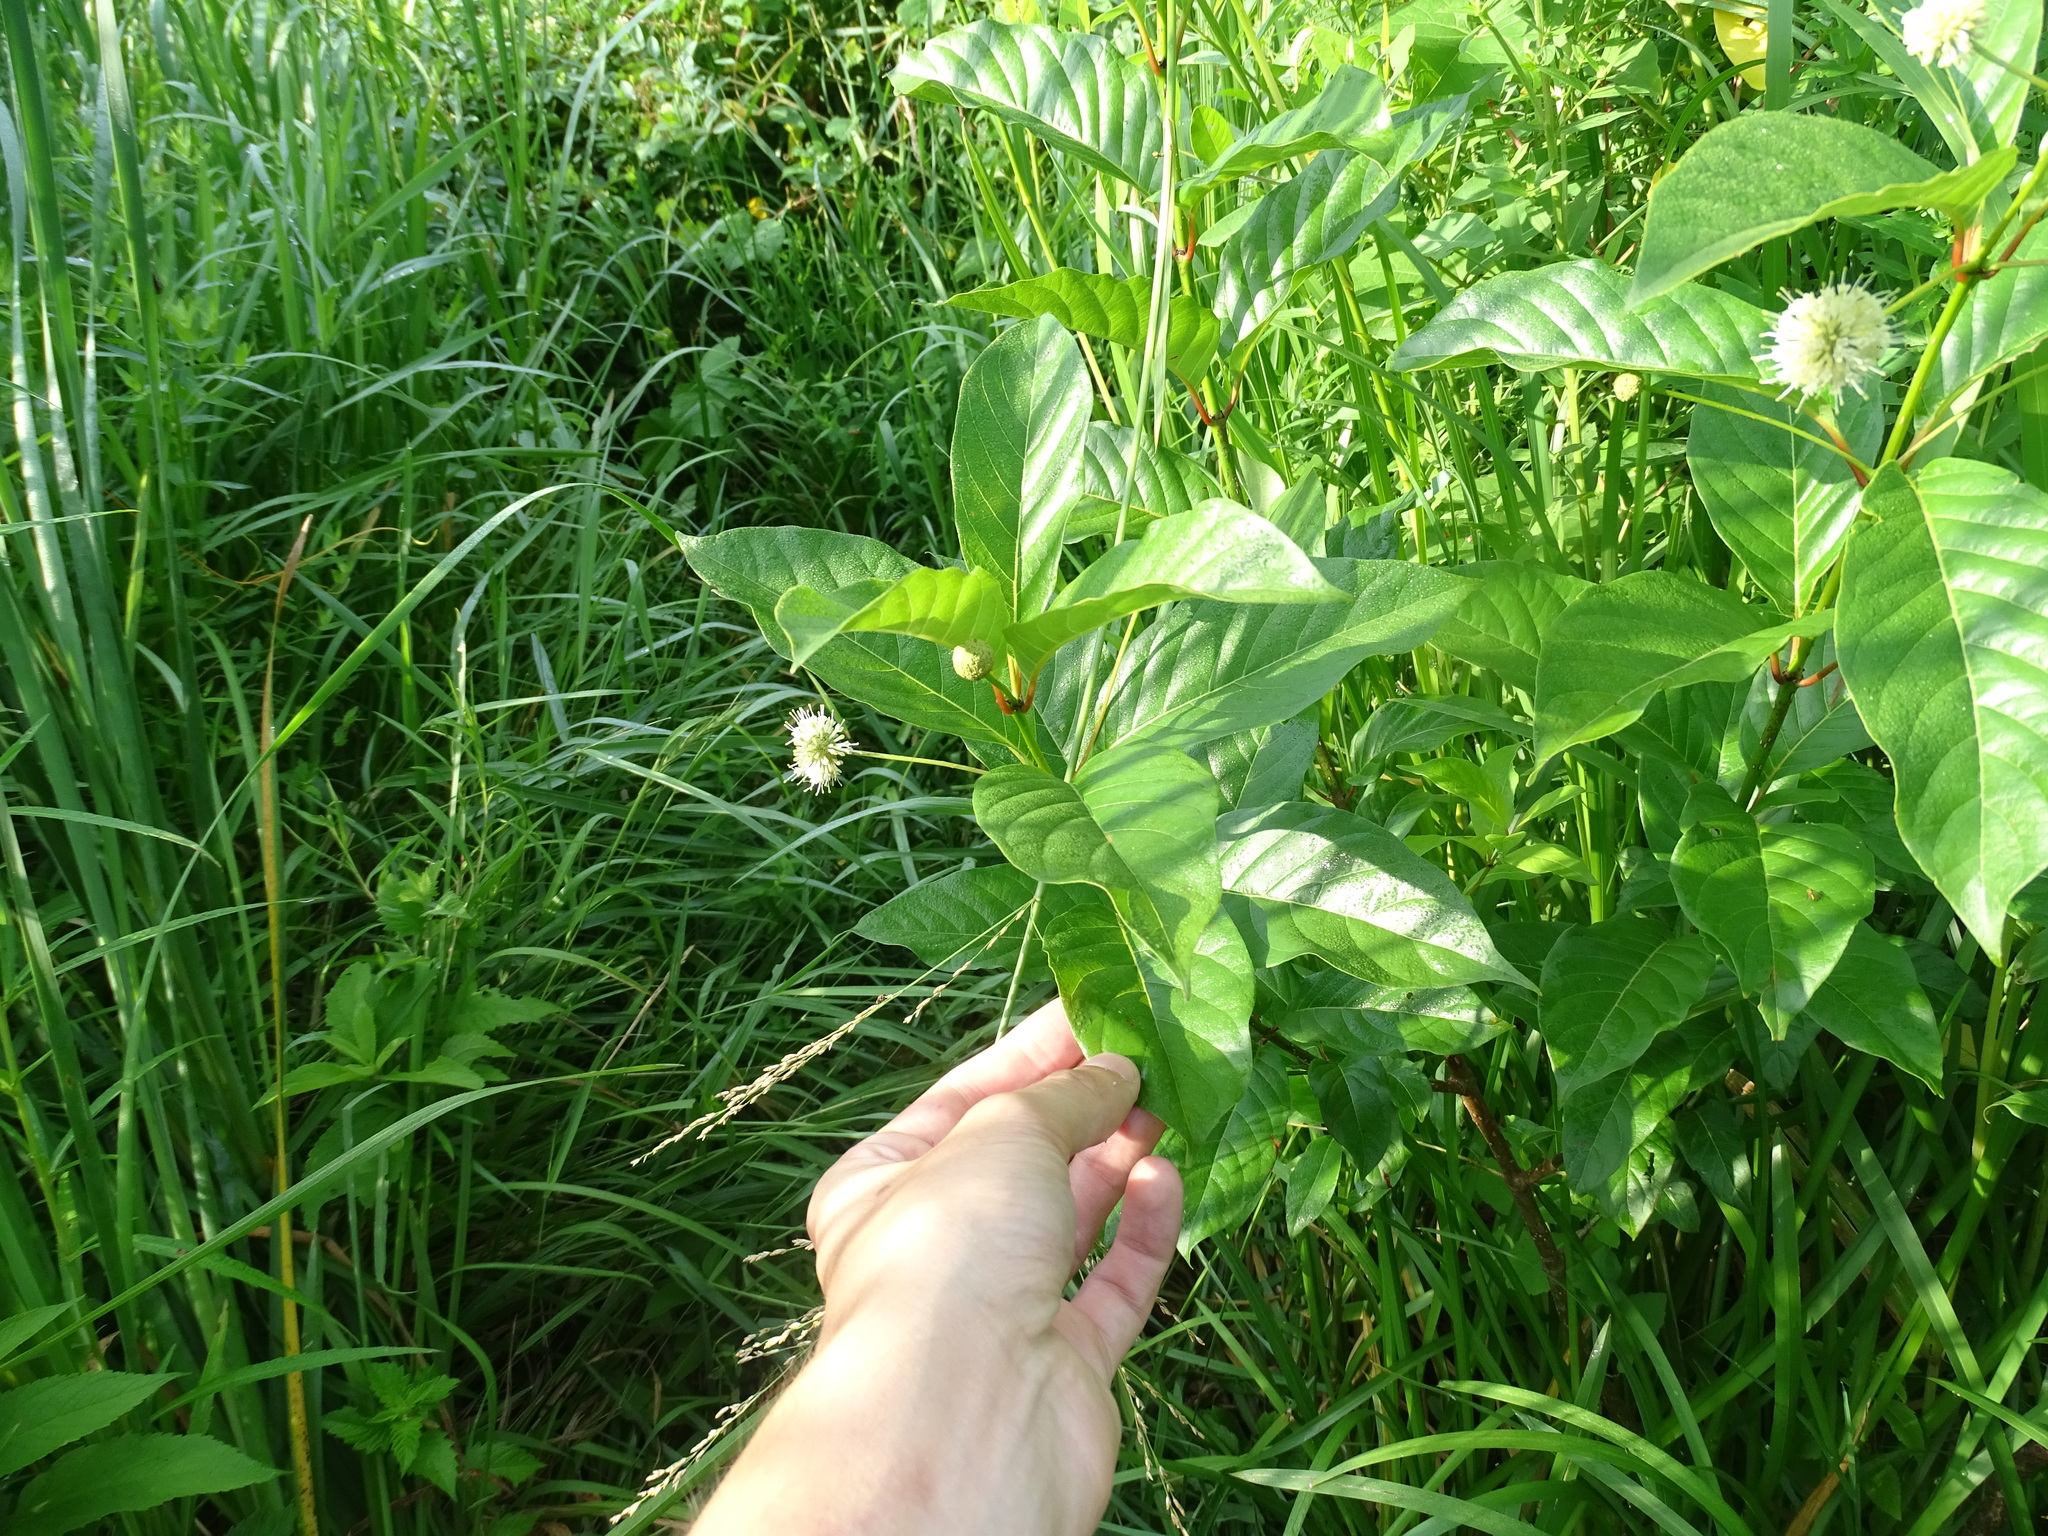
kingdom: Plantae
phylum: Tracheophyta
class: Magnoliopsida
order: Gentianales
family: Rubiaceae
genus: Cephalanthus
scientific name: Cephalanthus occidentalis
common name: Button-willow
